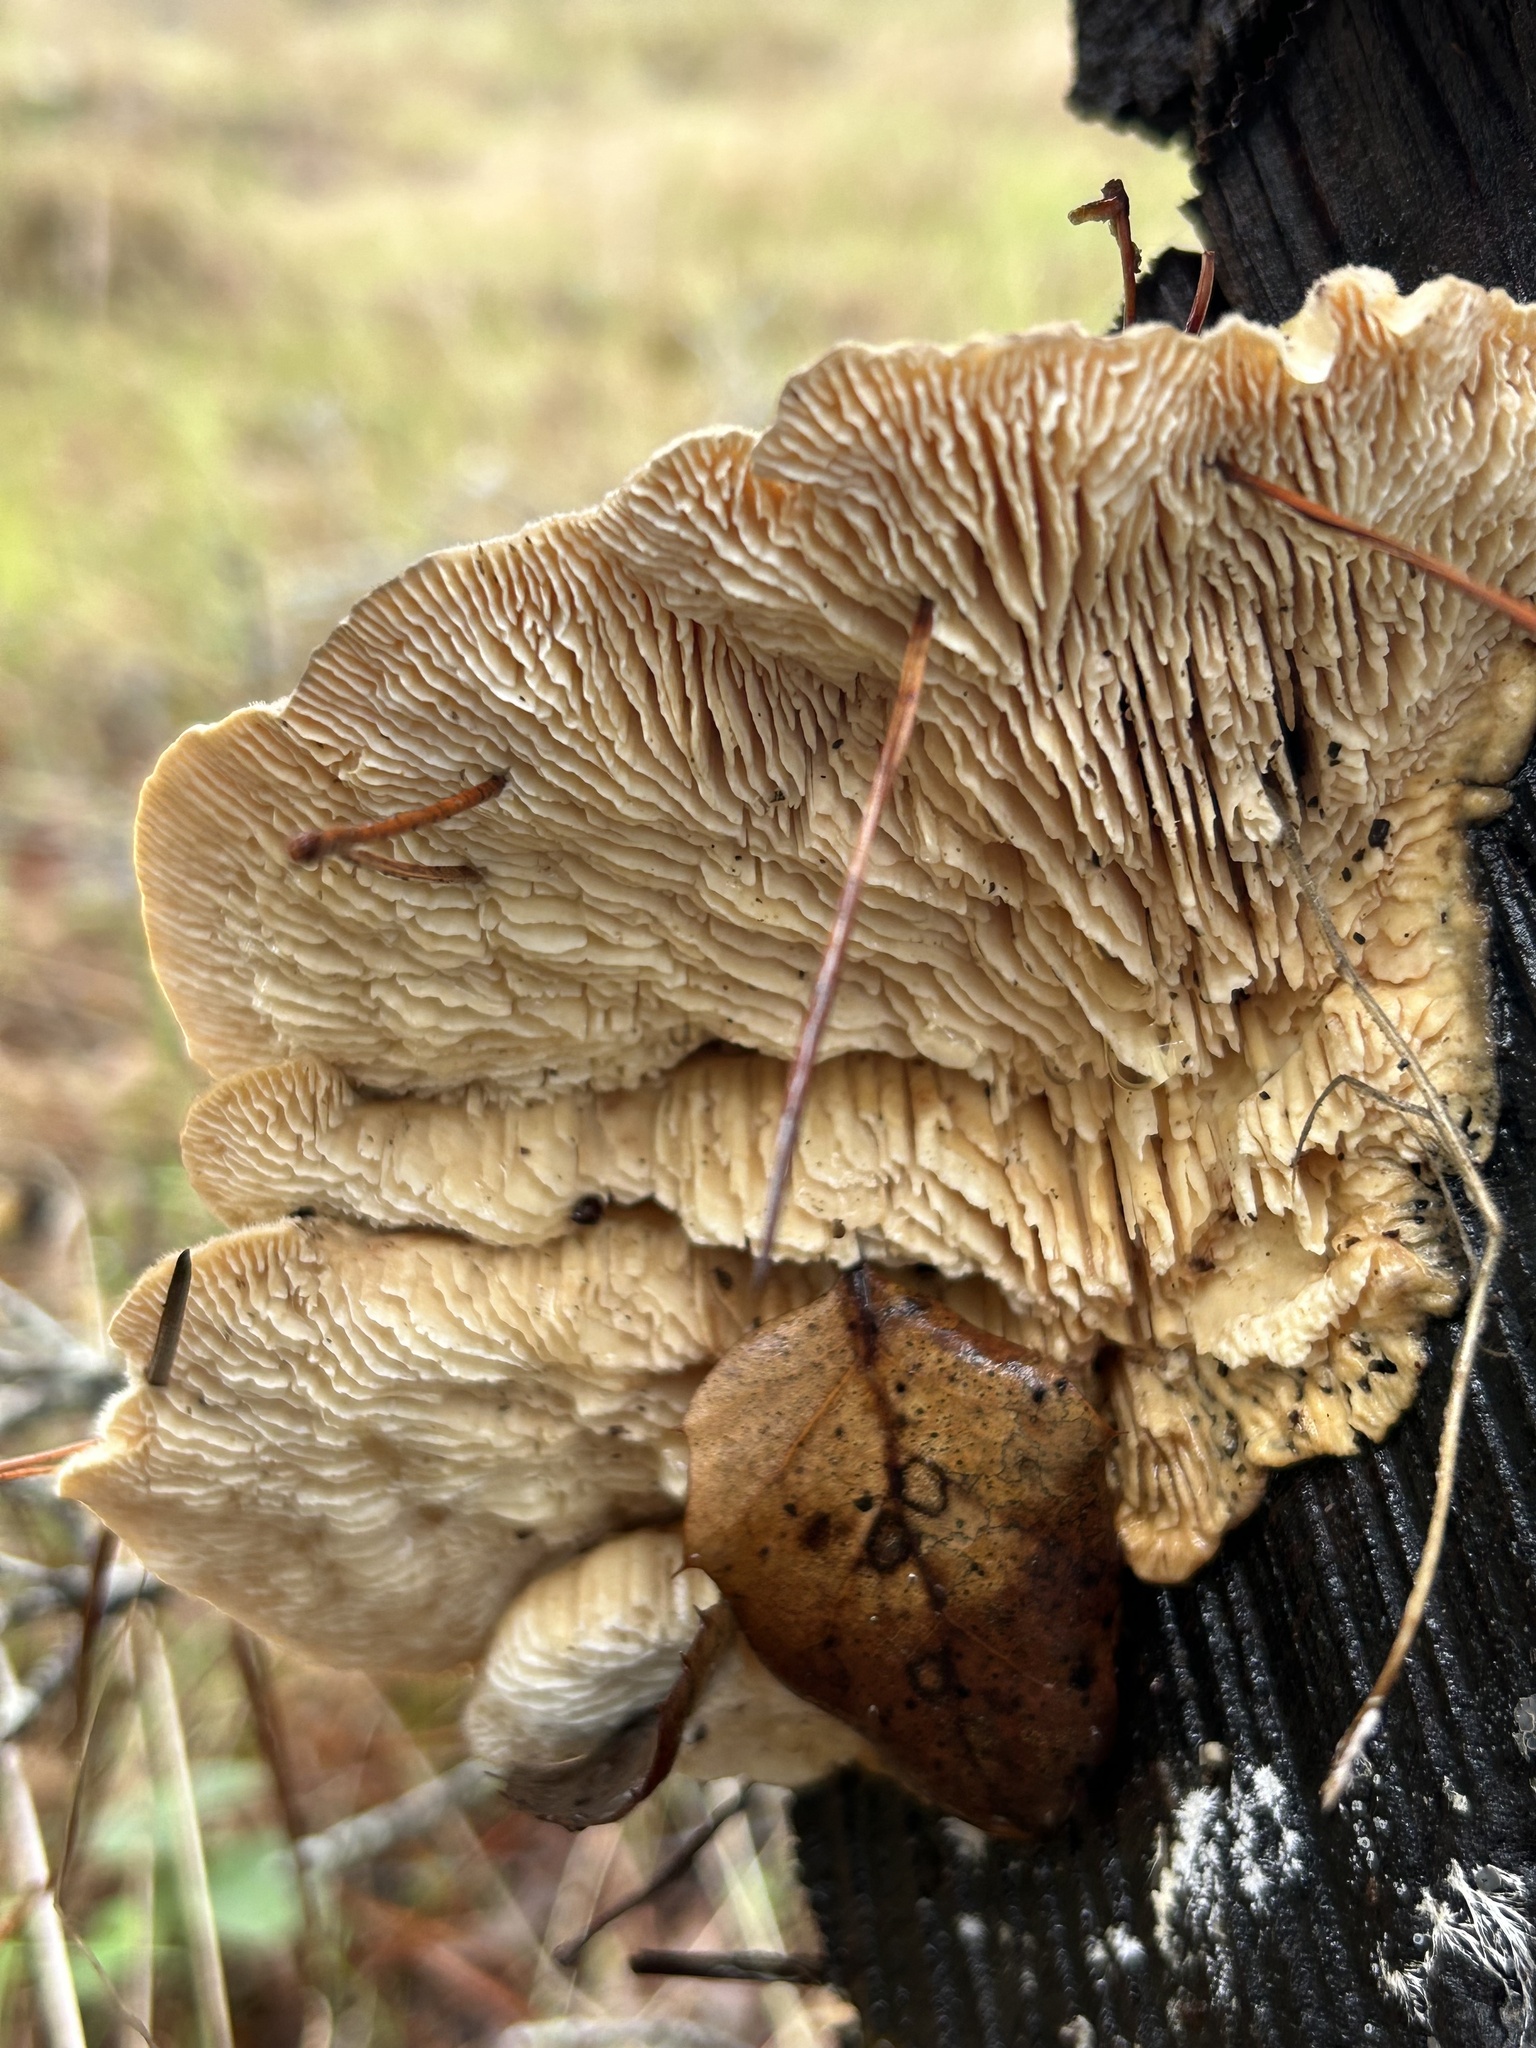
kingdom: Fungi
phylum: Basidiomycota
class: Agaricomycetes
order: Polyporales
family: Polyporaceae
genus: Lenzites
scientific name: Lenzites betulinus
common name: Birch mazegill
